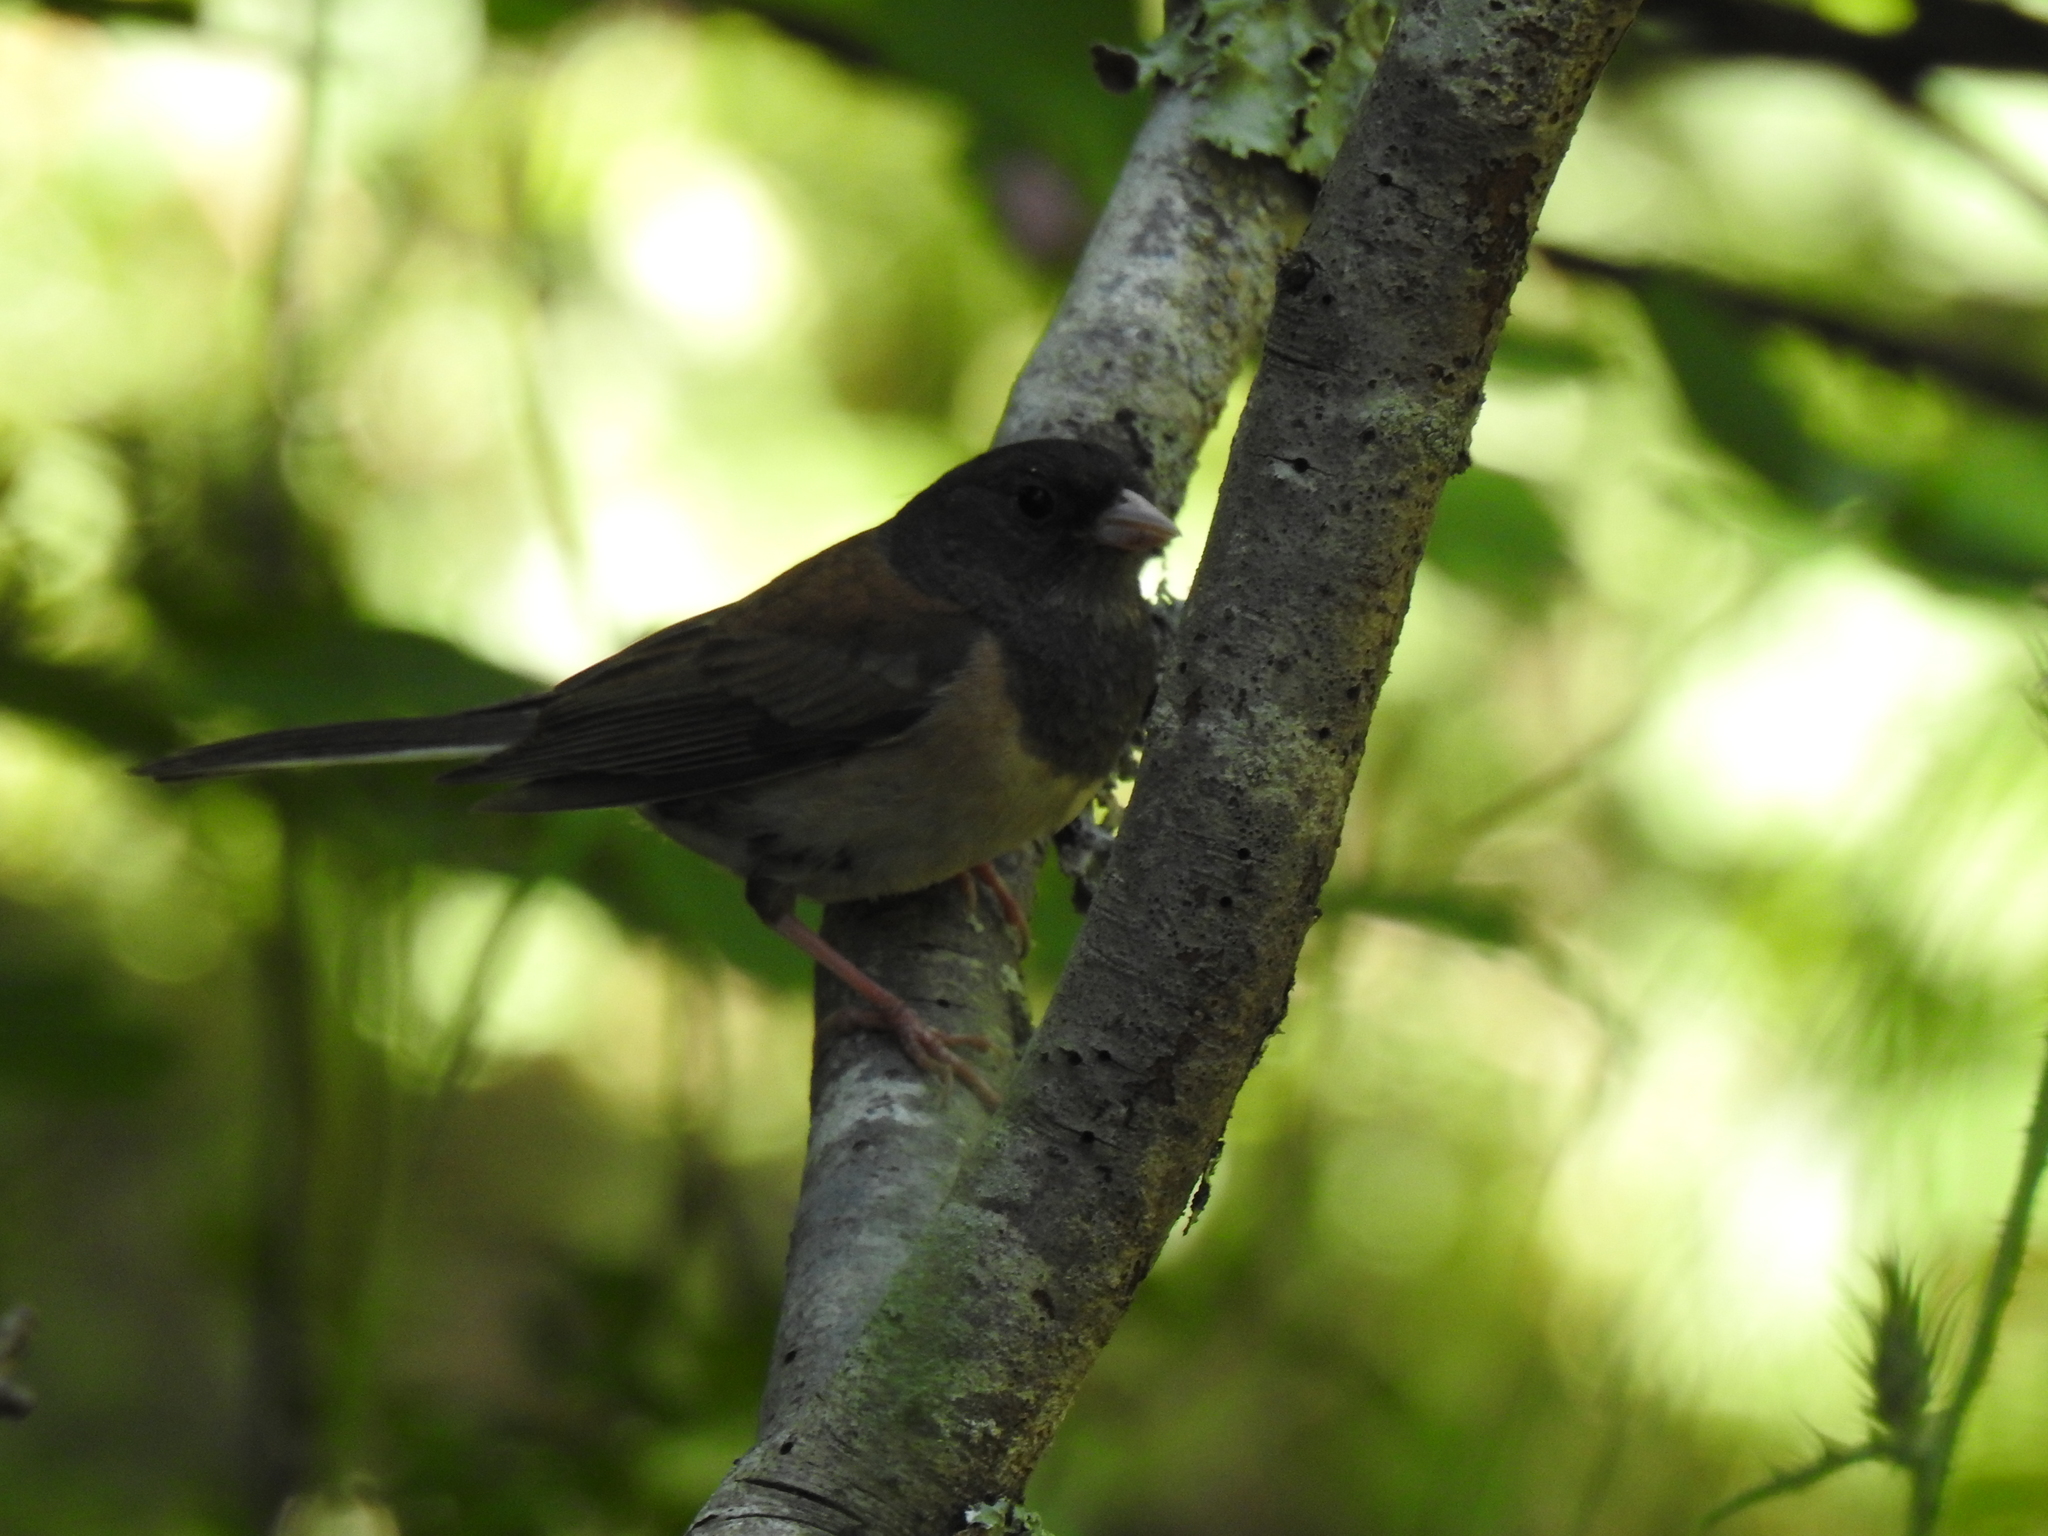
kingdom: Animalia
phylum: Chordata
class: Aves
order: Passeriformes
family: Passerellidae
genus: Junco
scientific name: Junco hyemalis
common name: Dark-eyed junco
